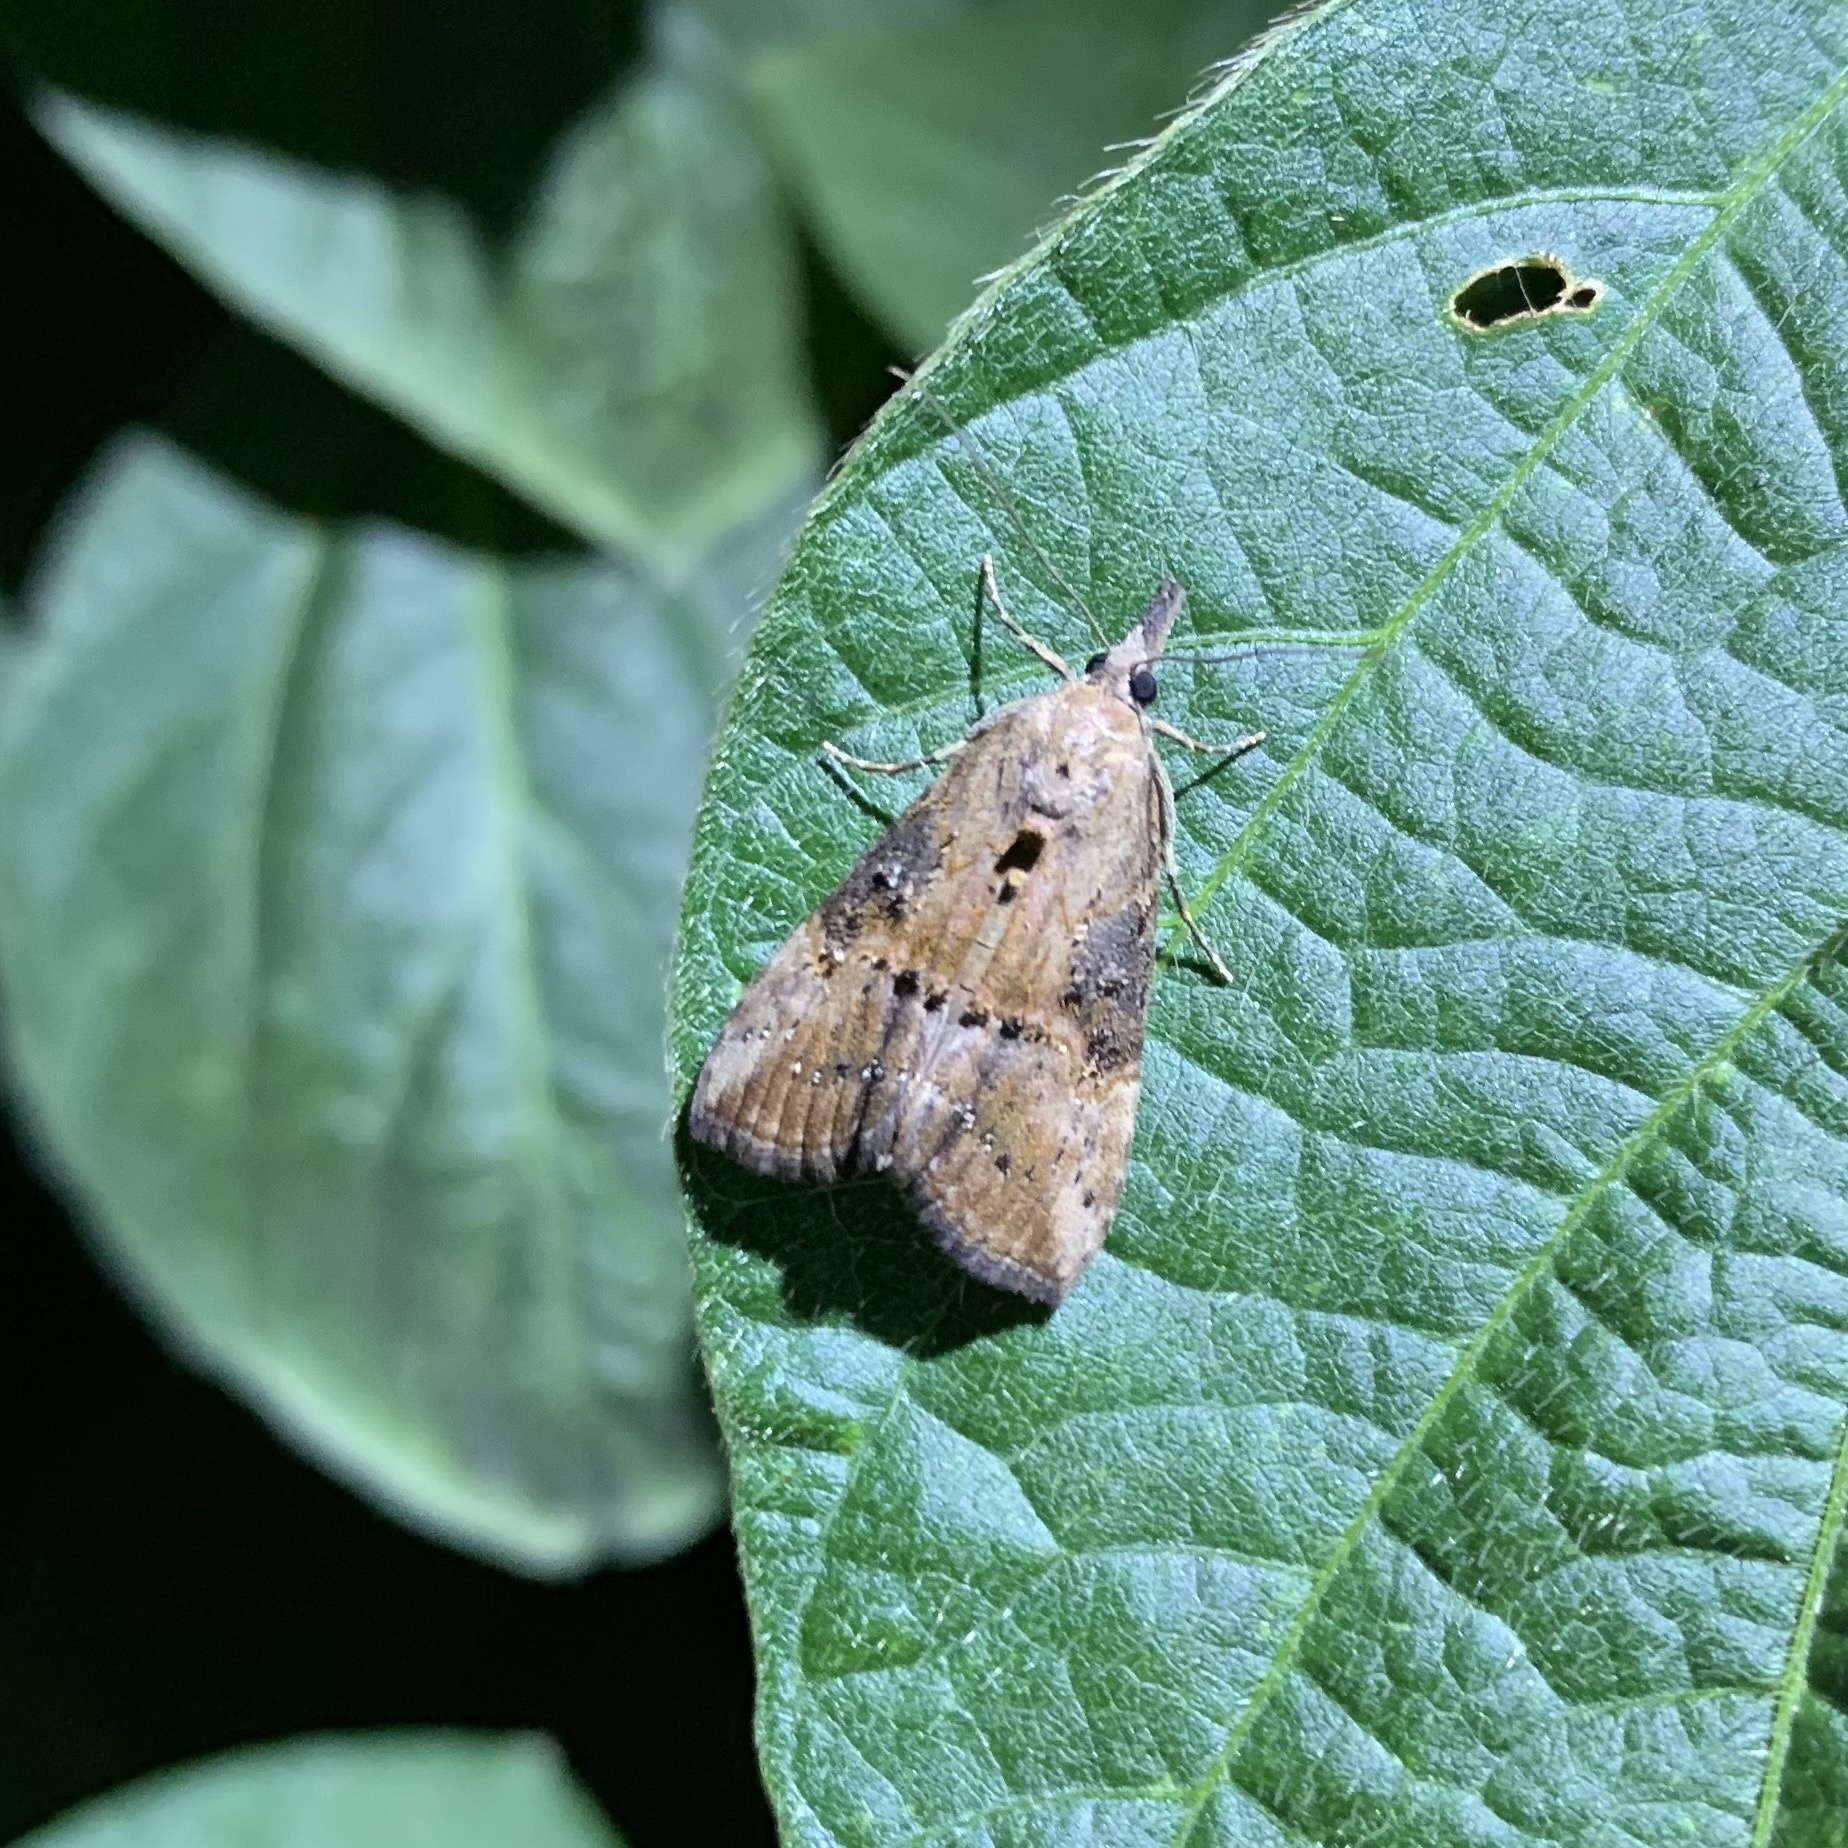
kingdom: Animalia
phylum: Arthropoda
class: Insecta
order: Lepidoptera
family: Erebidae
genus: Hypena
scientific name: Hypena scabra
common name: Green cloverworm
